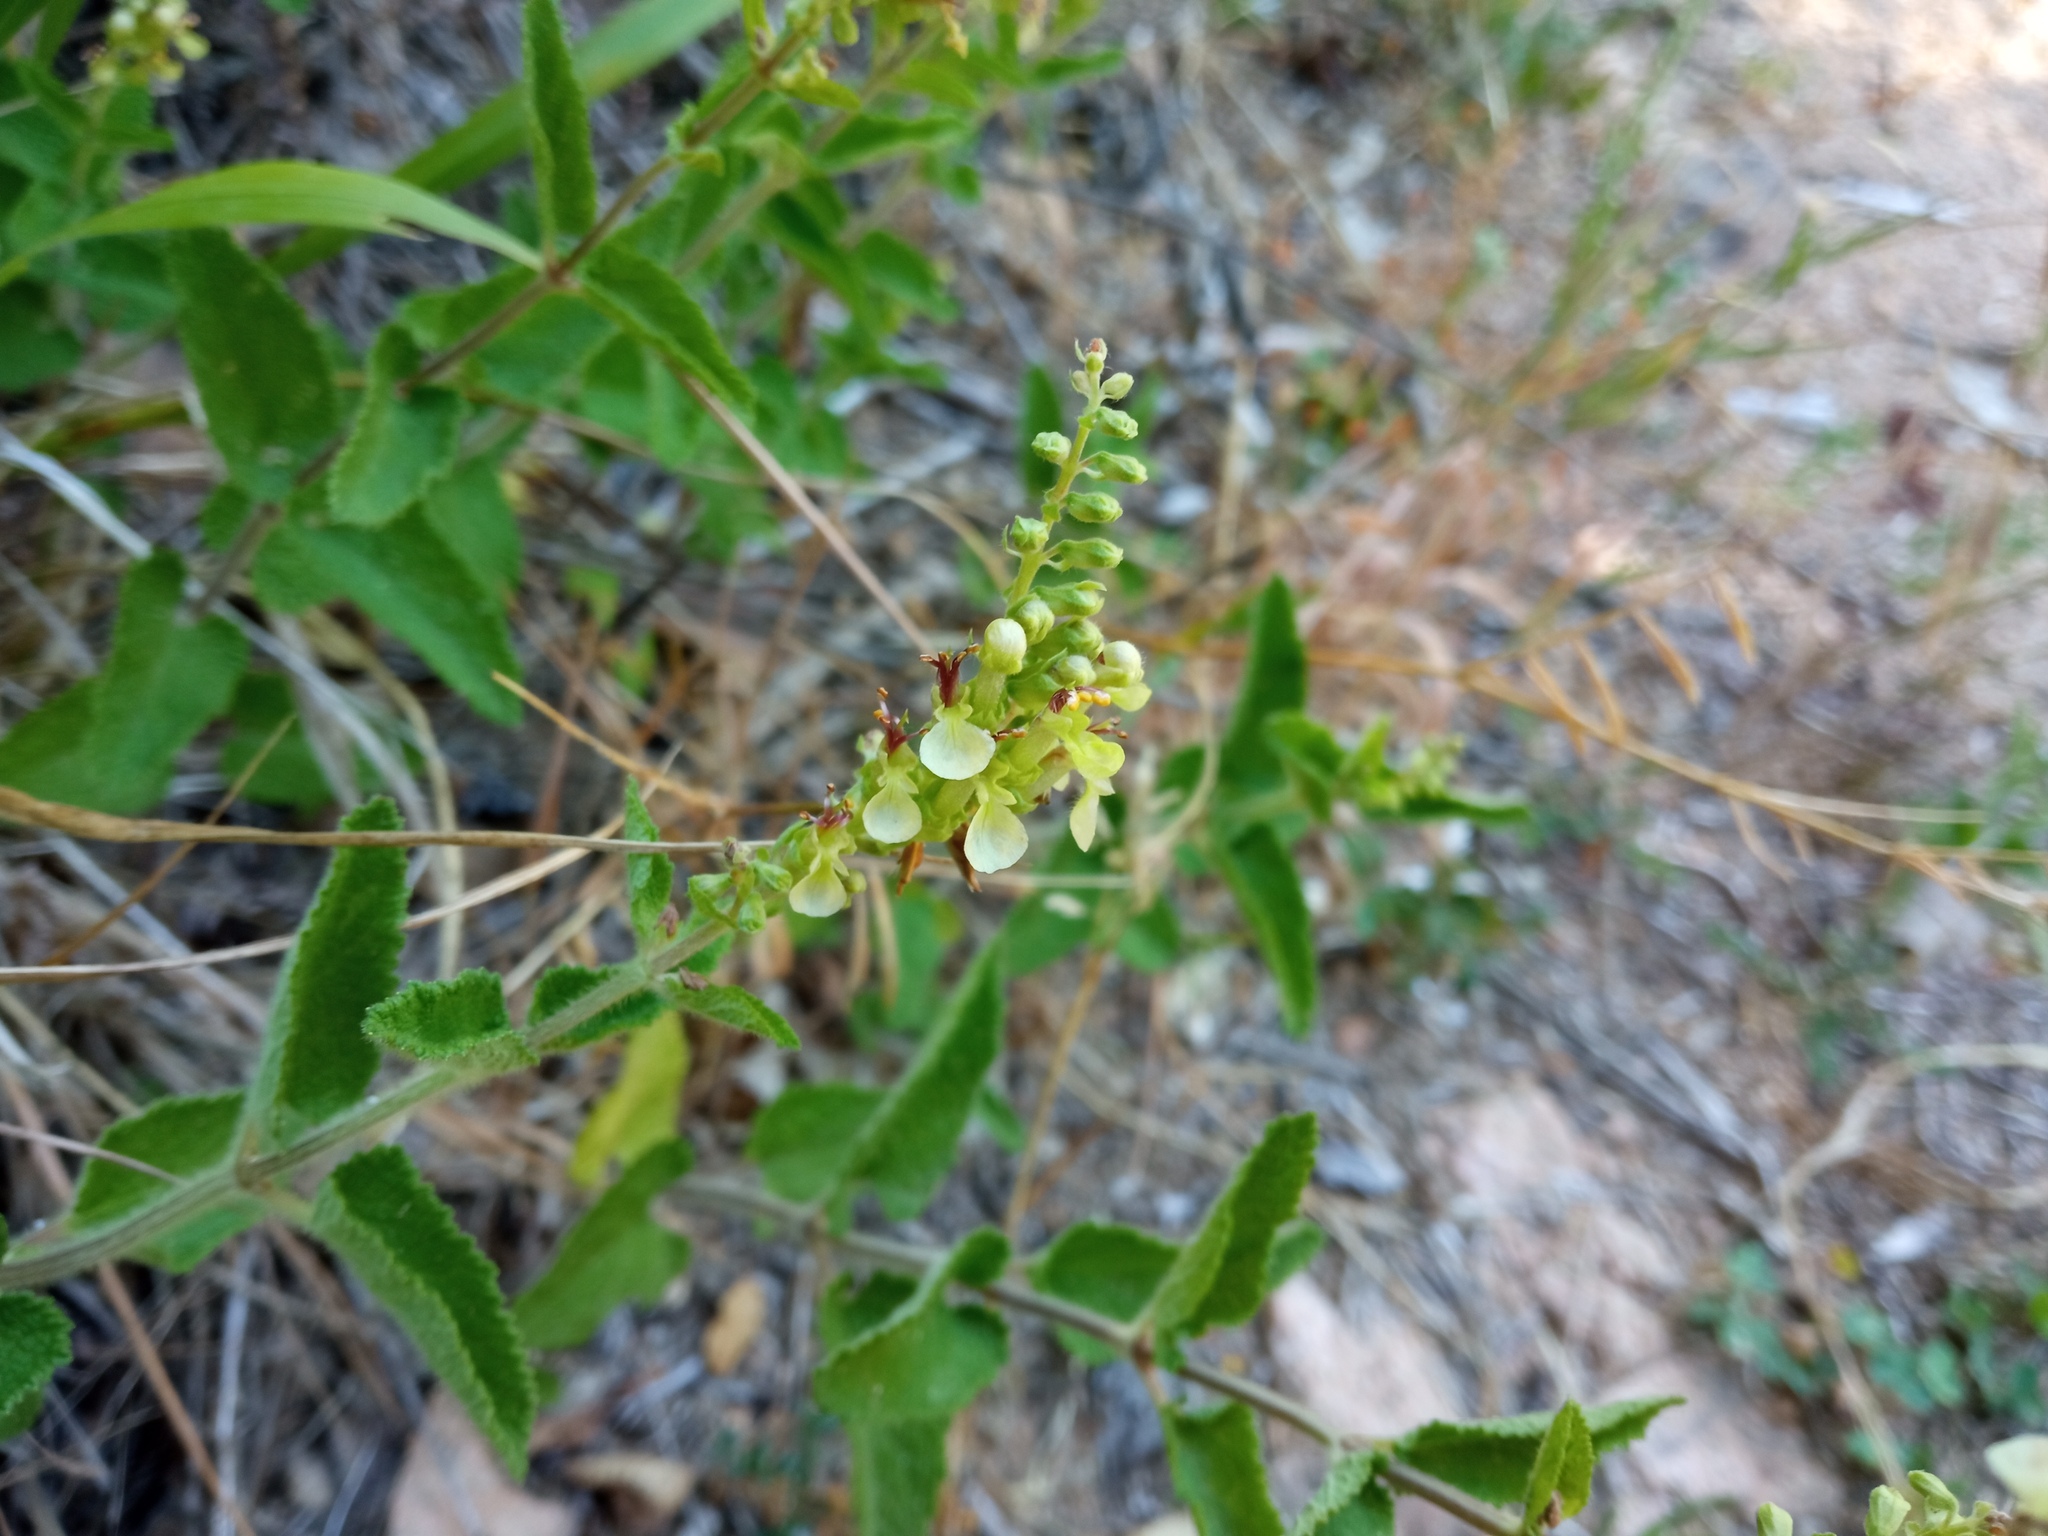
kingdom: Plantae
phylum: Tracheophyta
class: Magnoliopsida
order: Lamiales
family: Lamiaceae
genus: Teucrium
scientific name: Teucrium scorodonia
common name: Woodland germander
